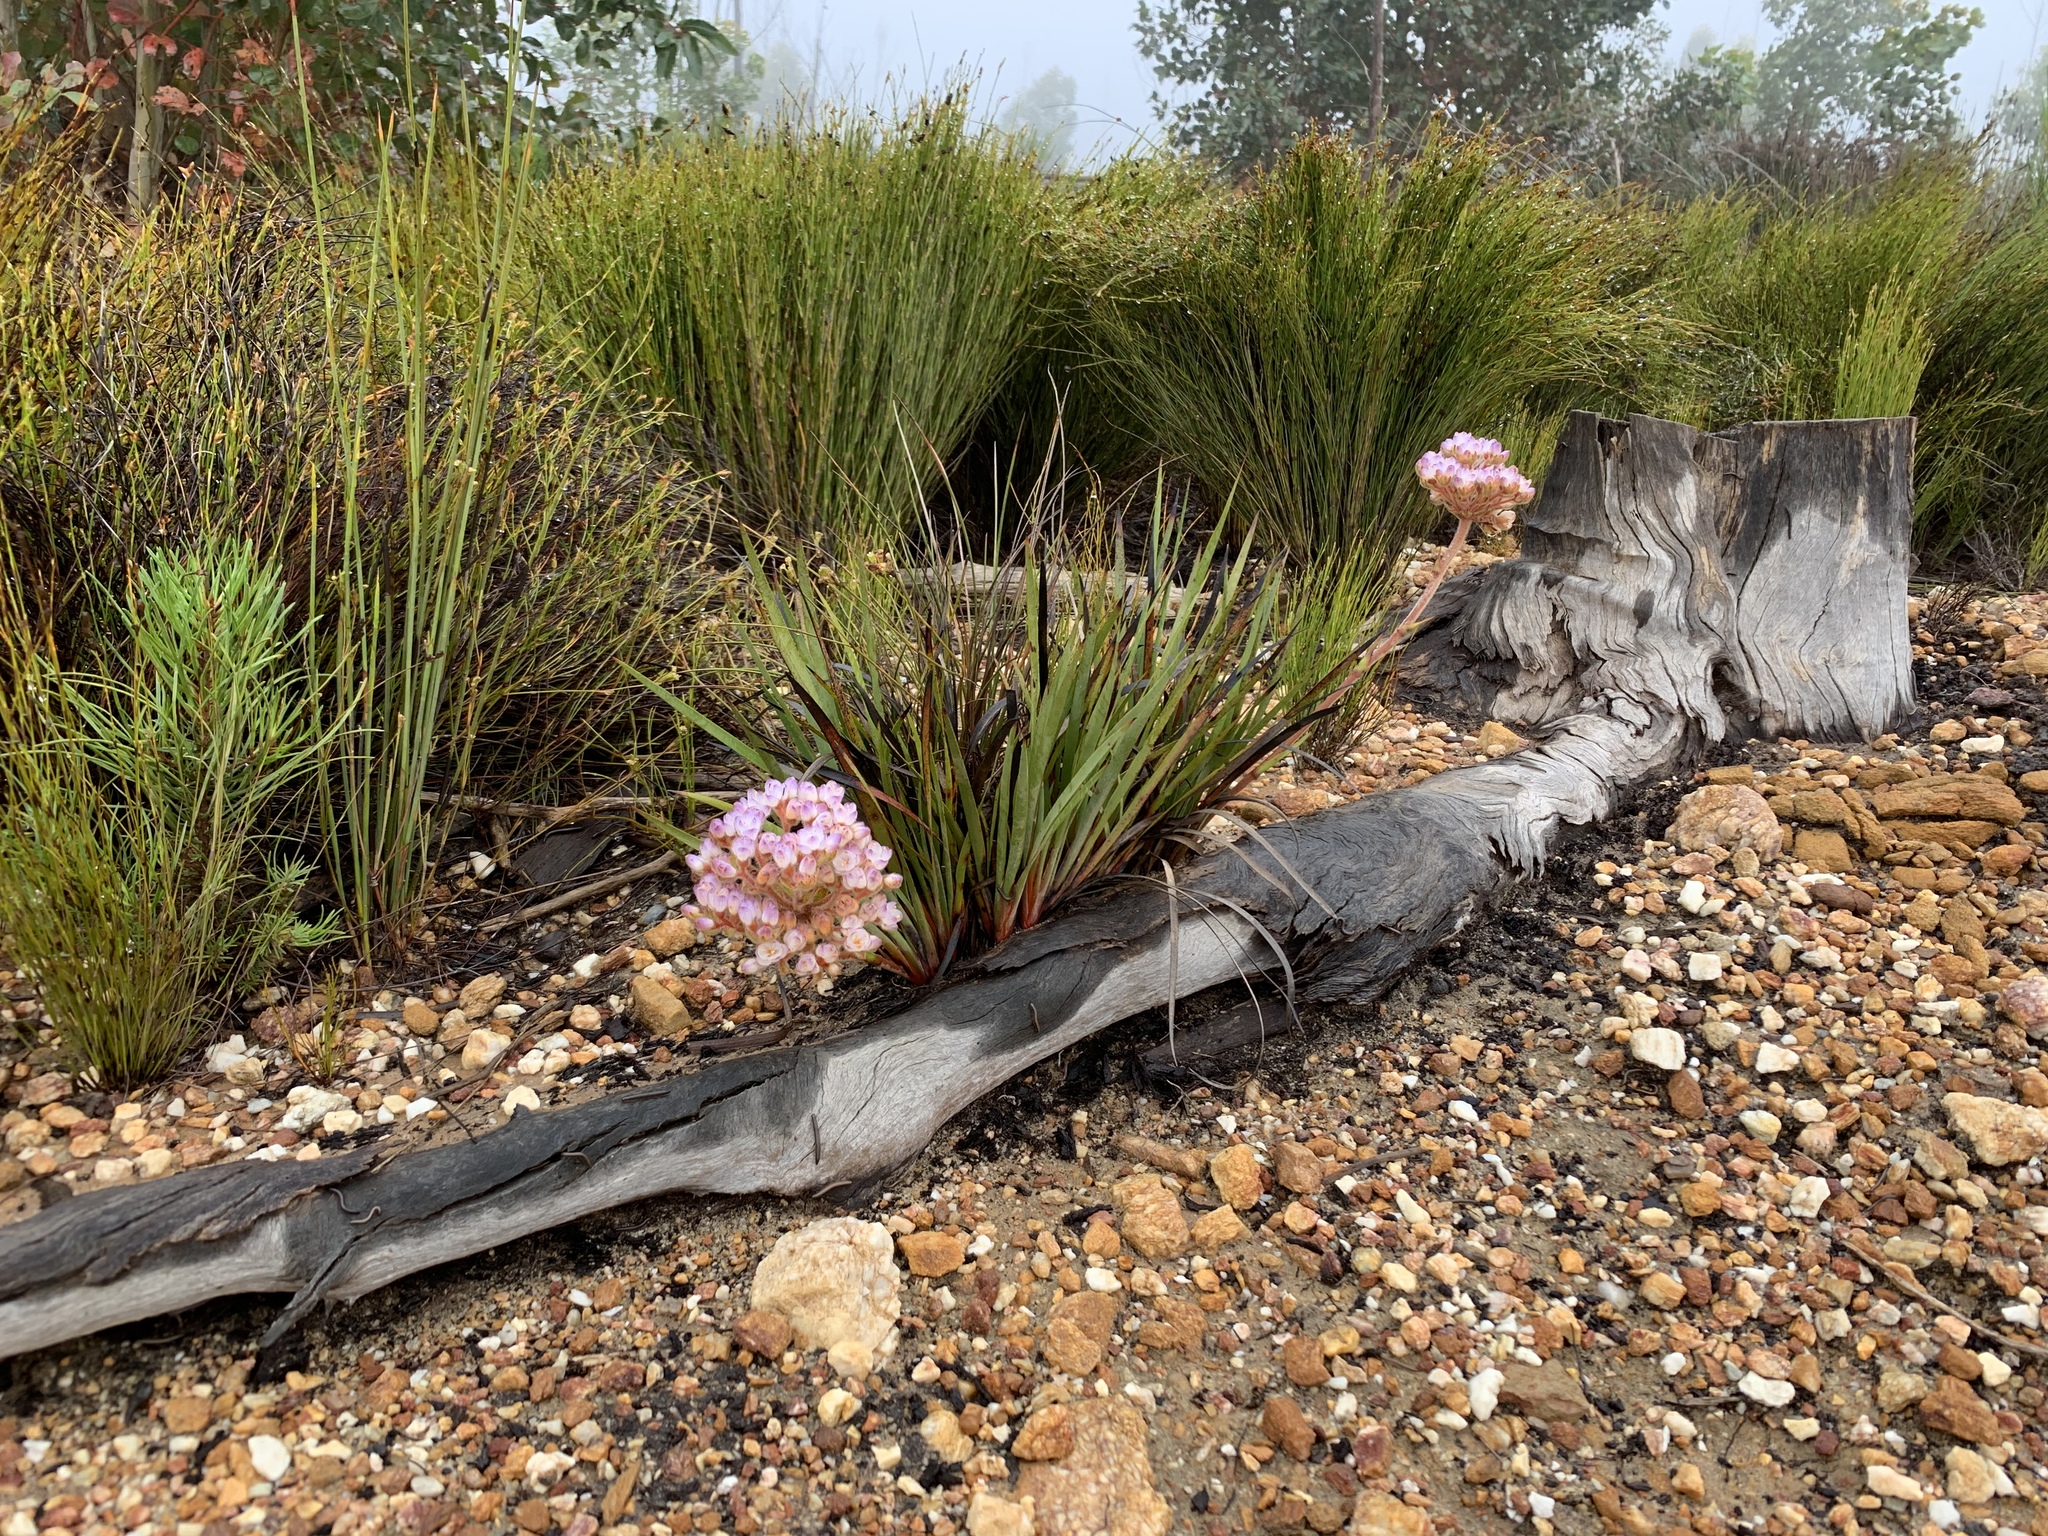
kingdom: Plantae
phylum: Tracheophyta
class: Liliopsida
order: Commelinales
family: Haemodoraceae
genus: Dilatris
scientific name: Dilatris pillansii
